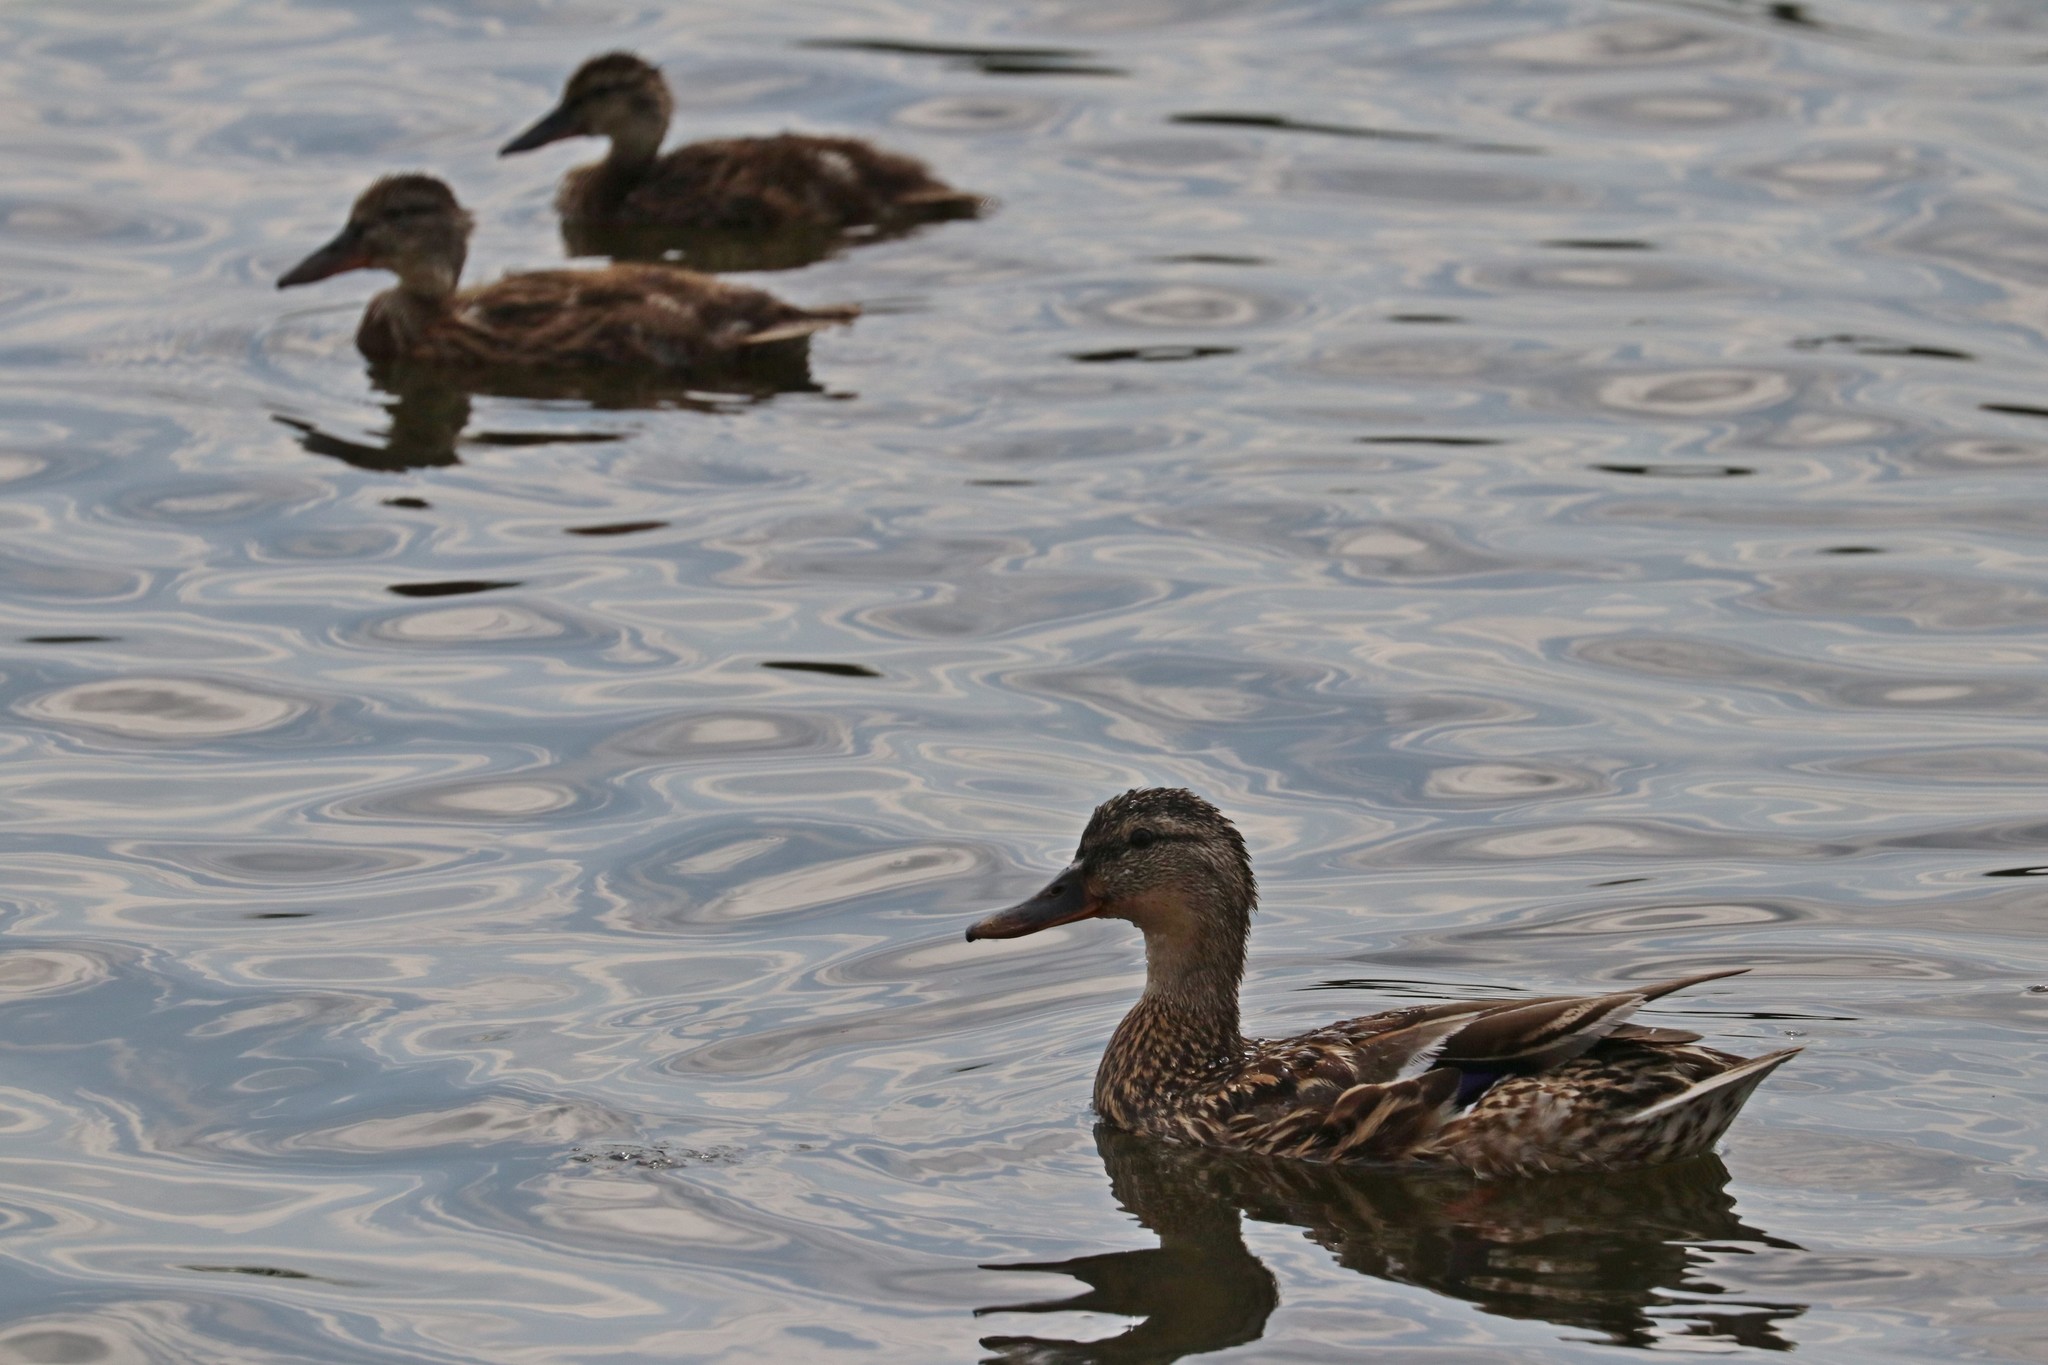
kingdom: Animalia
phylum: Chordata
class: Aves
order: Anseriformes
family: Anatidae
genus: Anas
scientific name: Anas platyrhynchos
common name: Mallard
